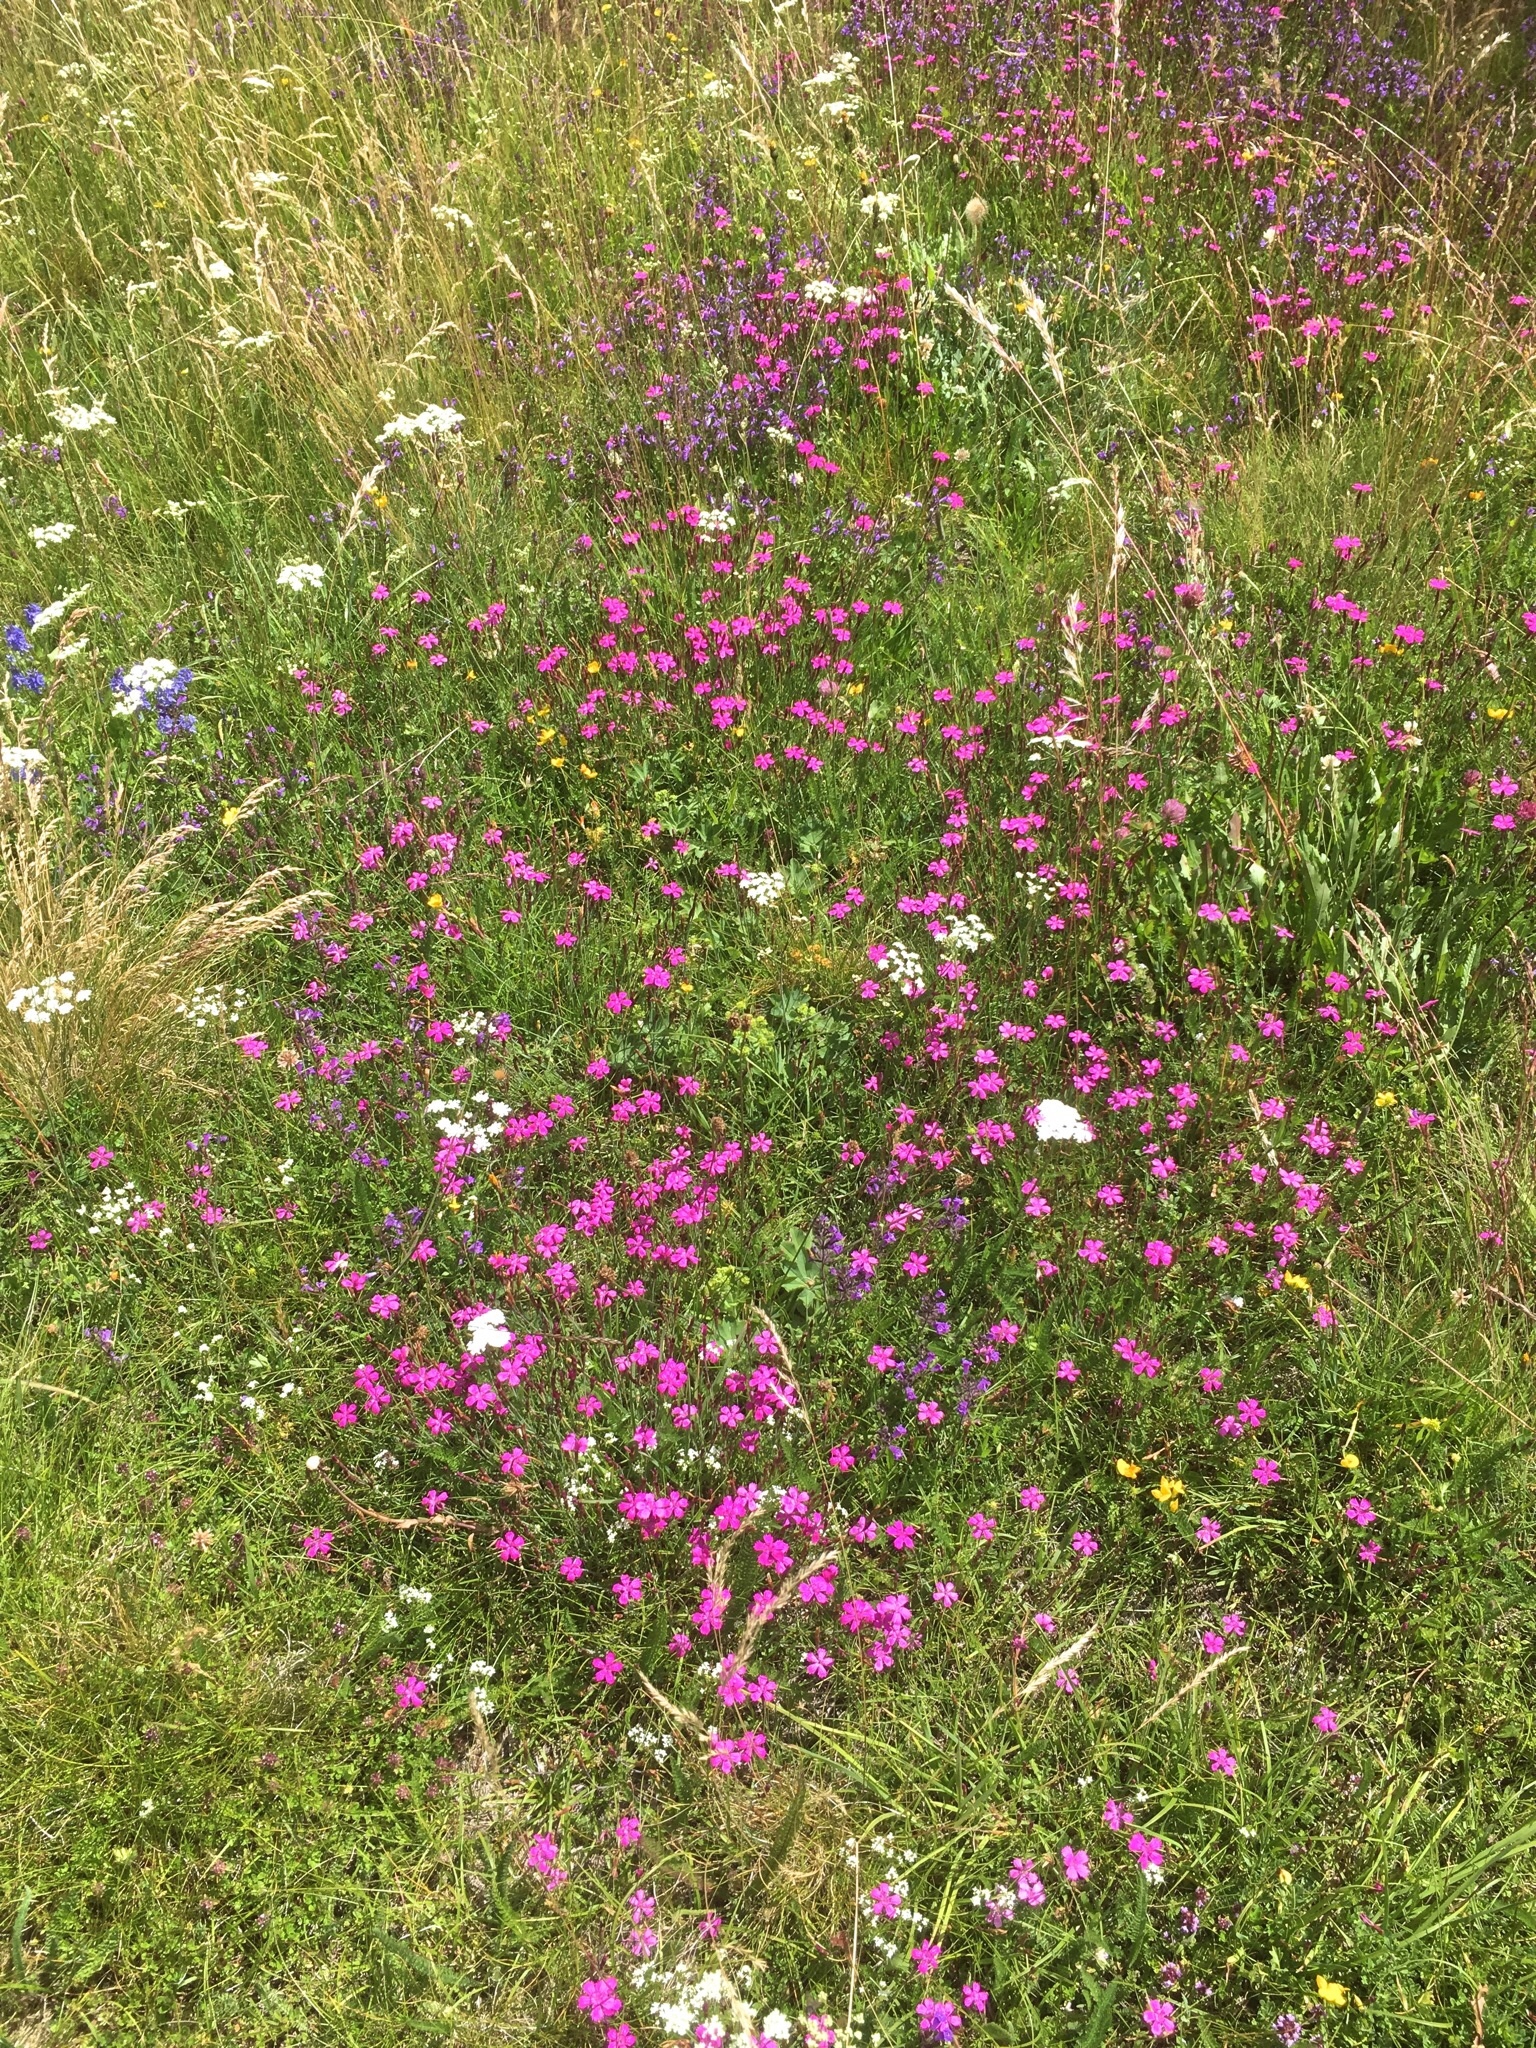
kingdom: Plantae
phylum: Tracheophyta
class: Magnoliopsida
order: Caryophyllales
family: Caryophyllaceae
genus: Dianthus
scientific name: Dianthus deltoides
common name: Maiden pink
